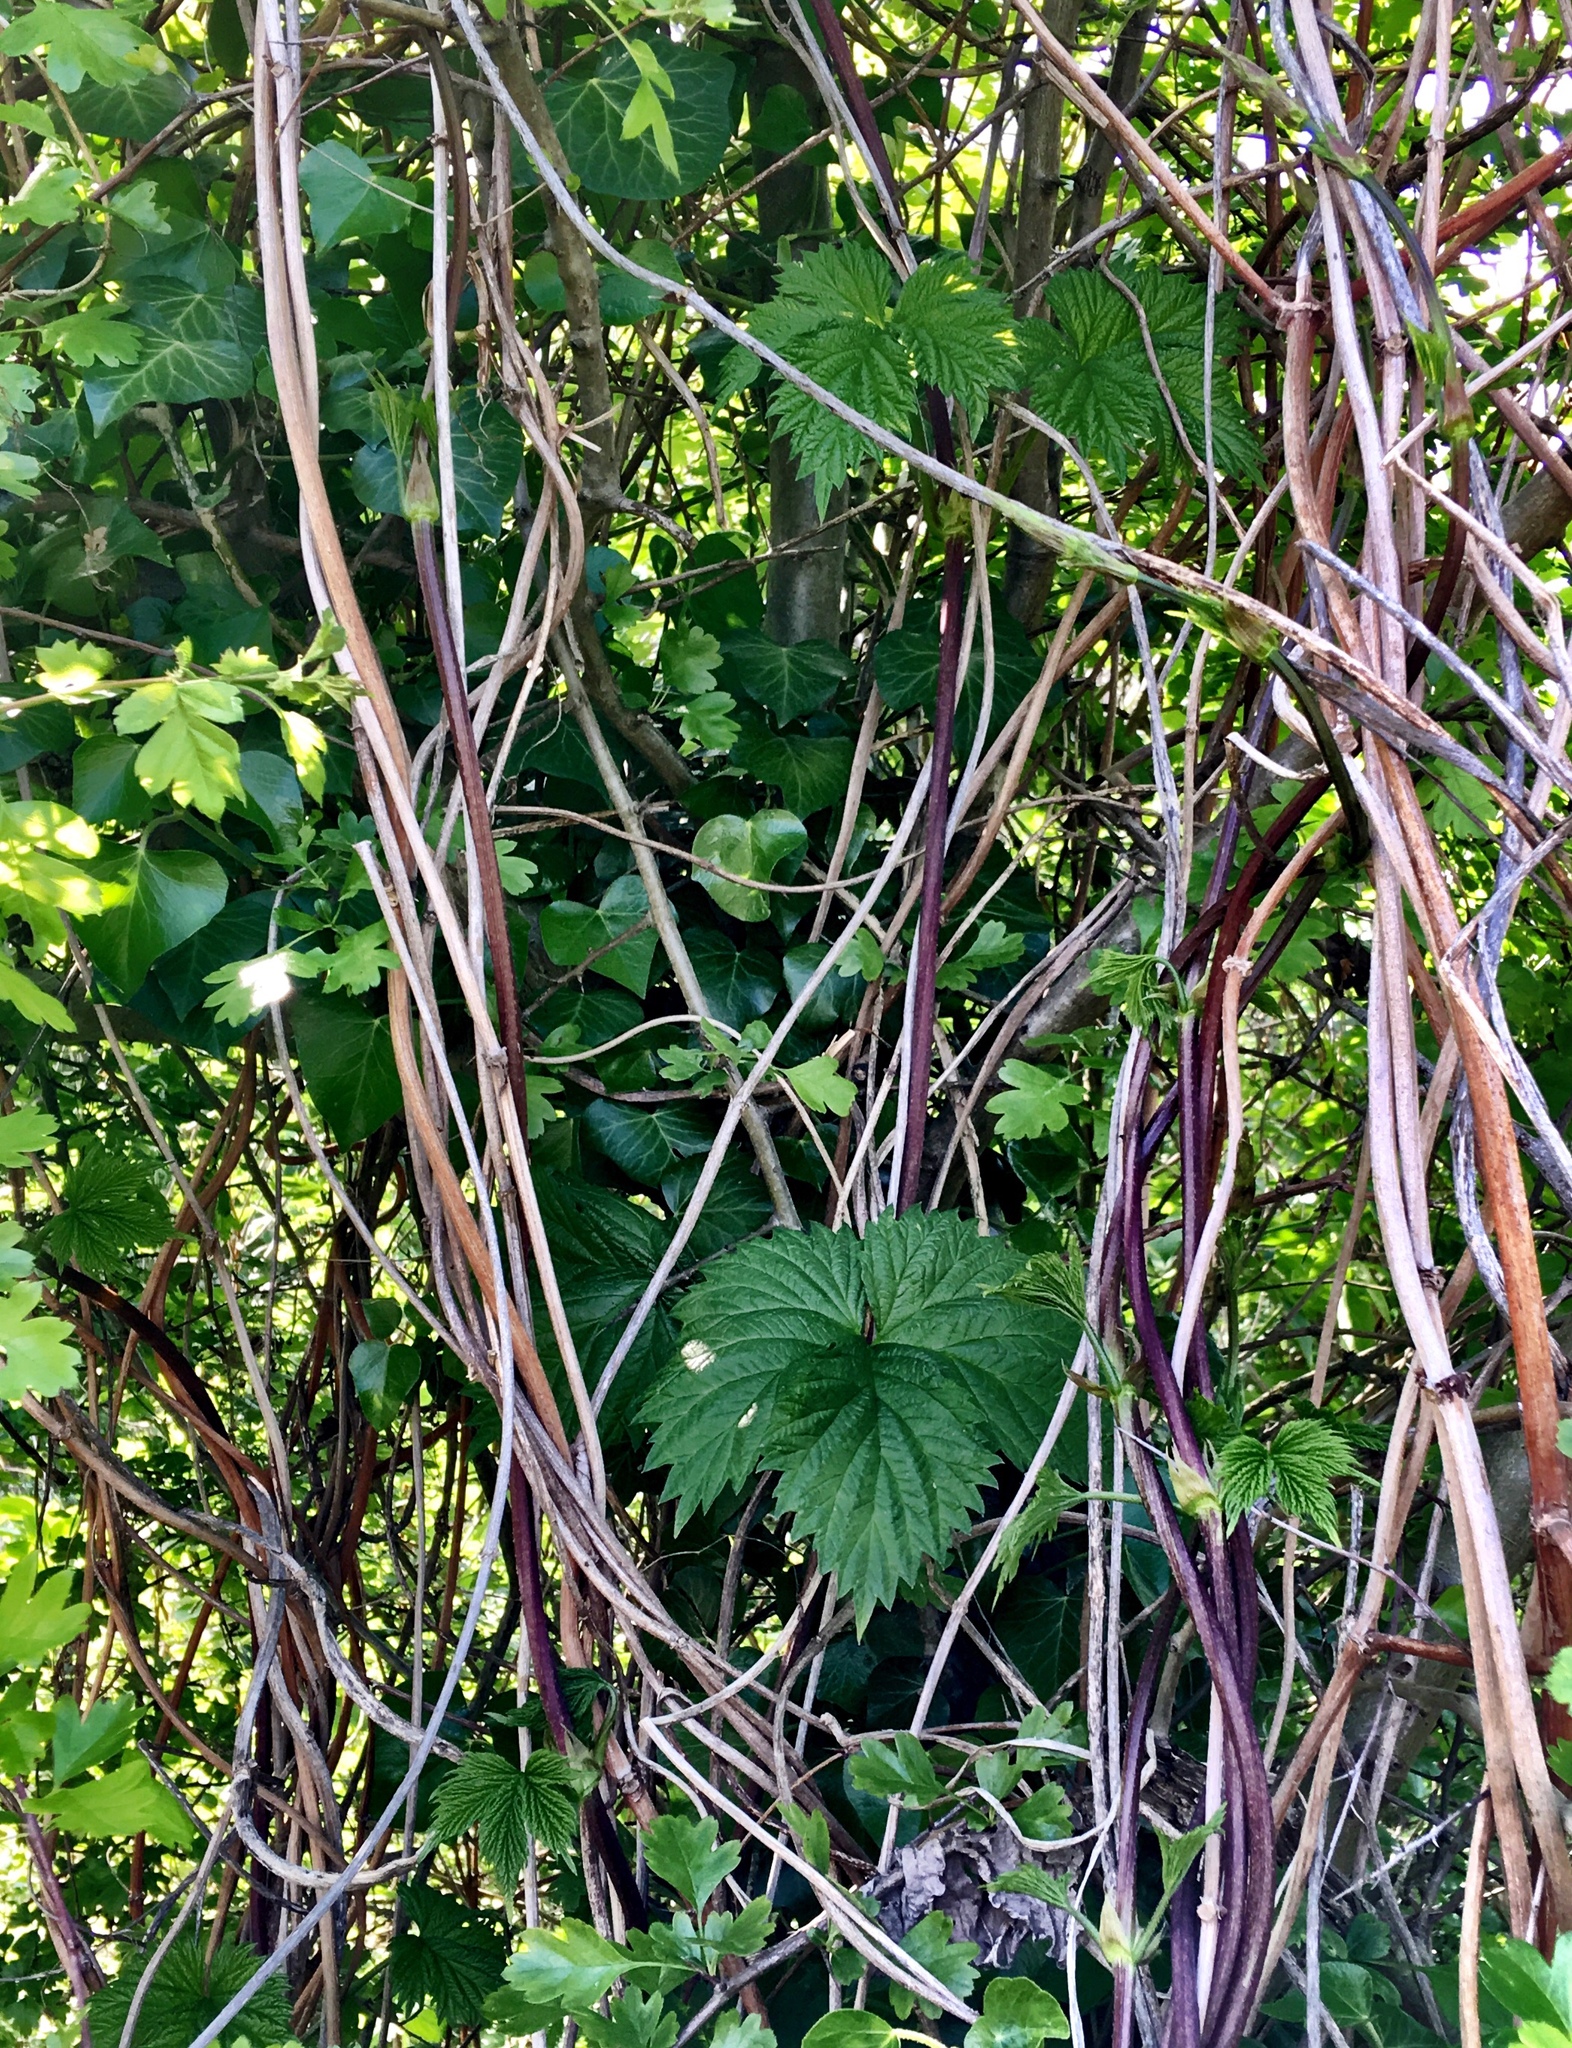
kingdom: Plantae
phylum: Tracheophyta
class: Magnoliopsida
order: Rosales
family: Cannabaceae
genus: Humulus
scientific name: Humulus lupulus
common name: Hop
